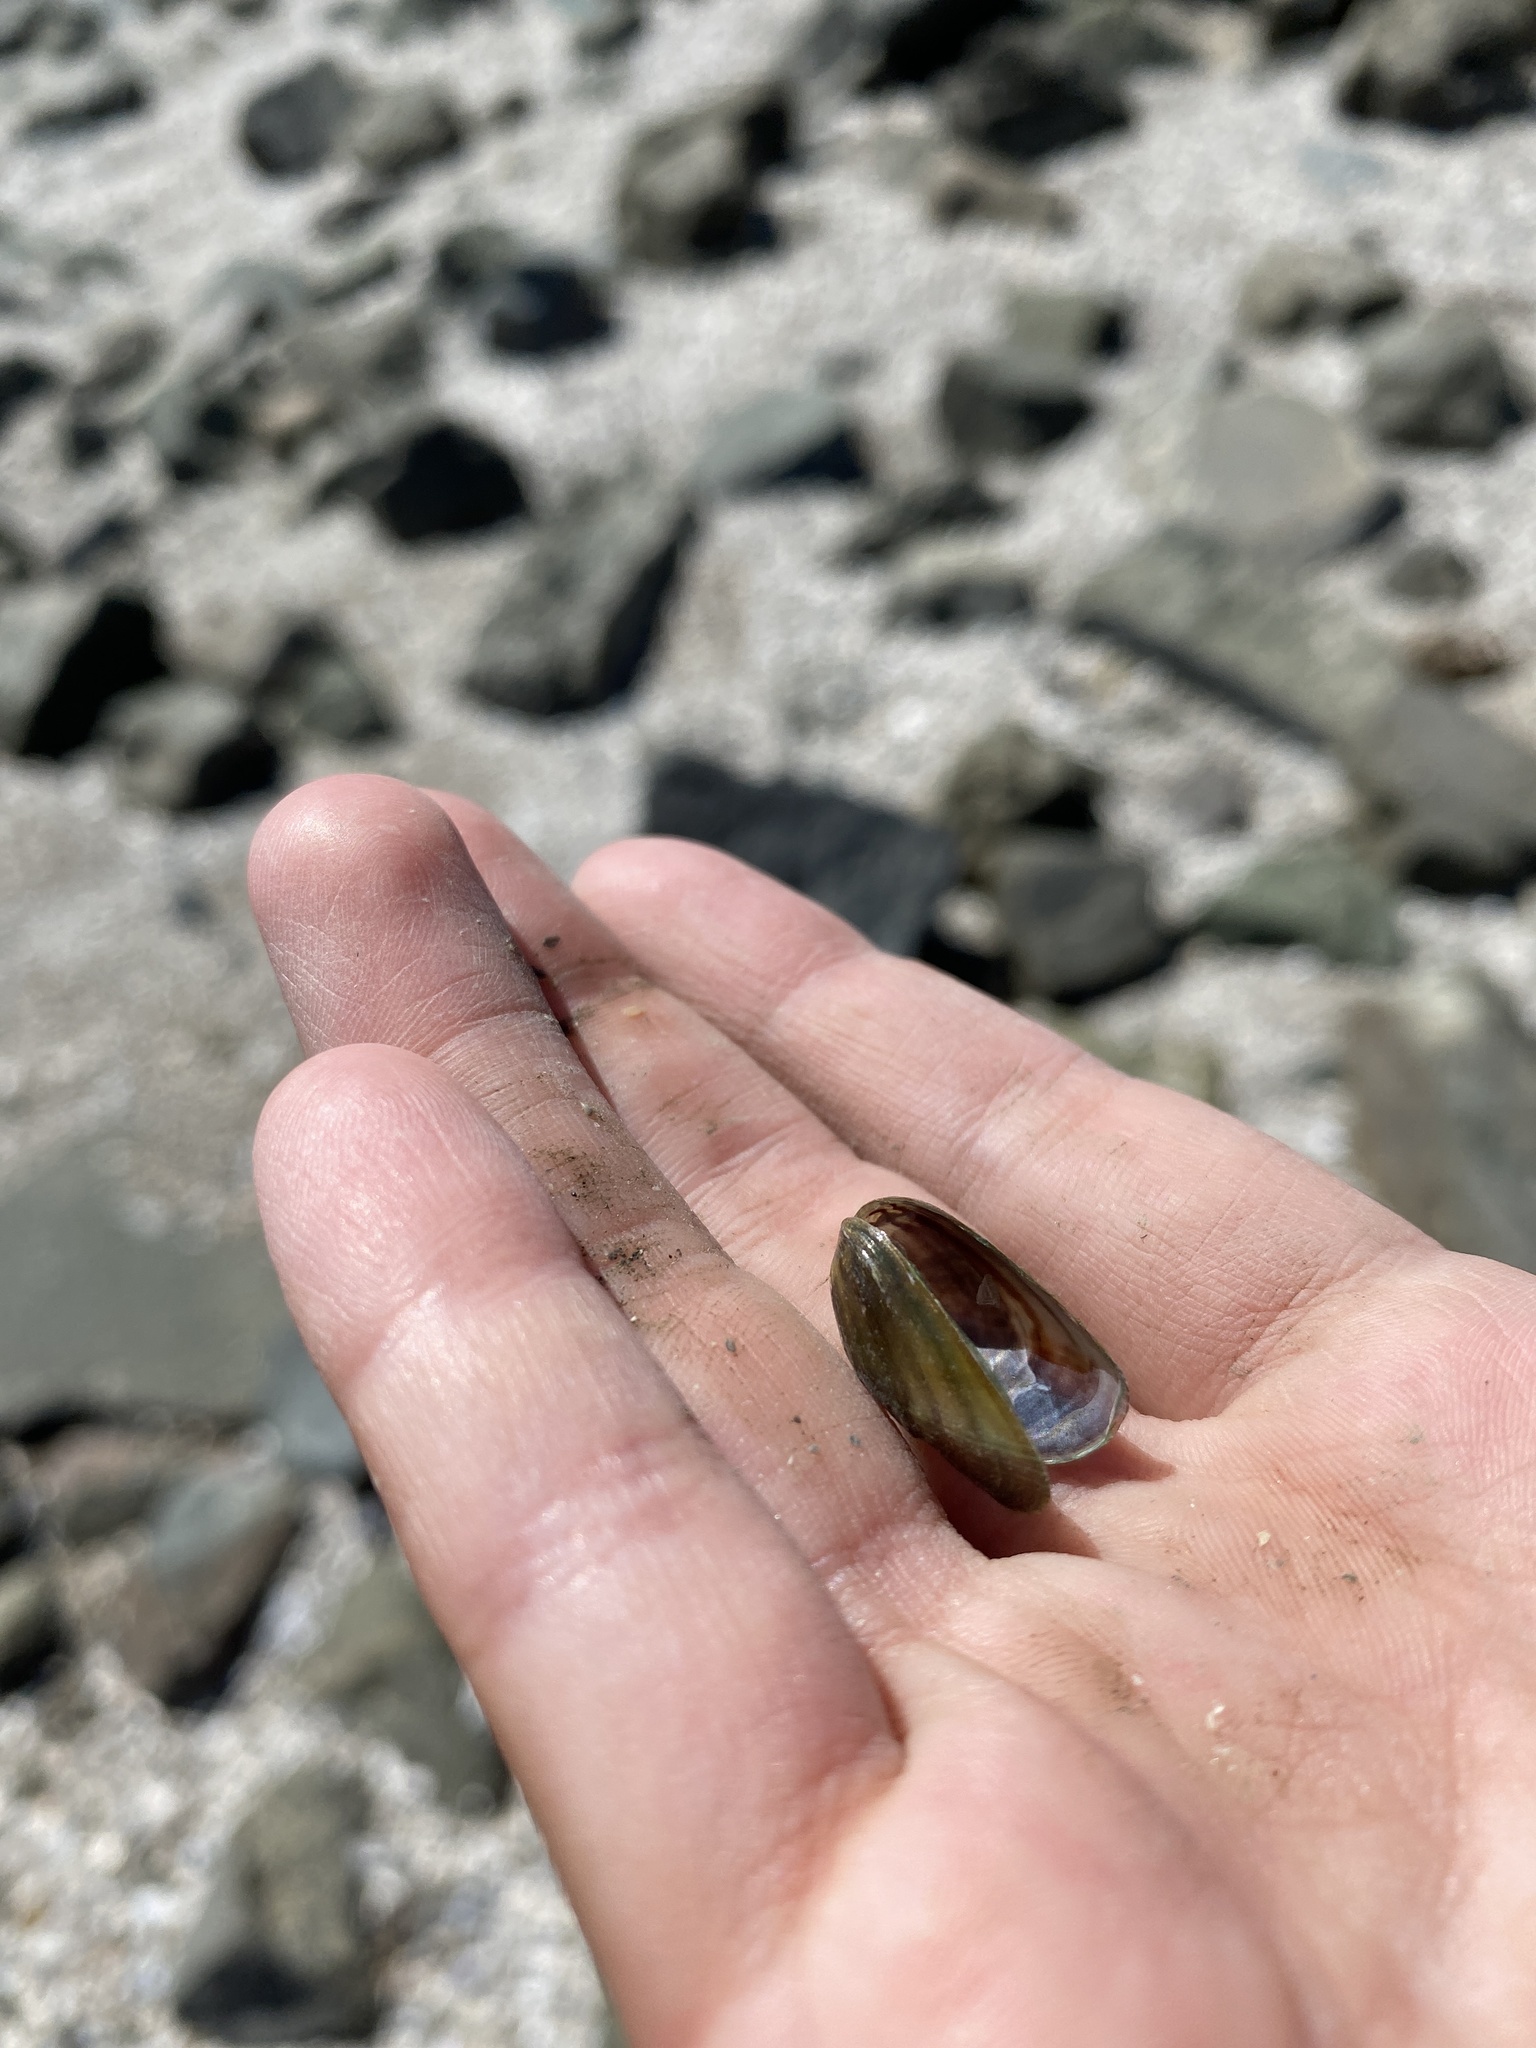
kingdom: Animalia
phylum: Mollusca
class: Bivalvia
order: Mytilida
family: Mytilidae
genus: Arcuatula
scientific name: Arcuatula senhousia
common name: Asian mussel
